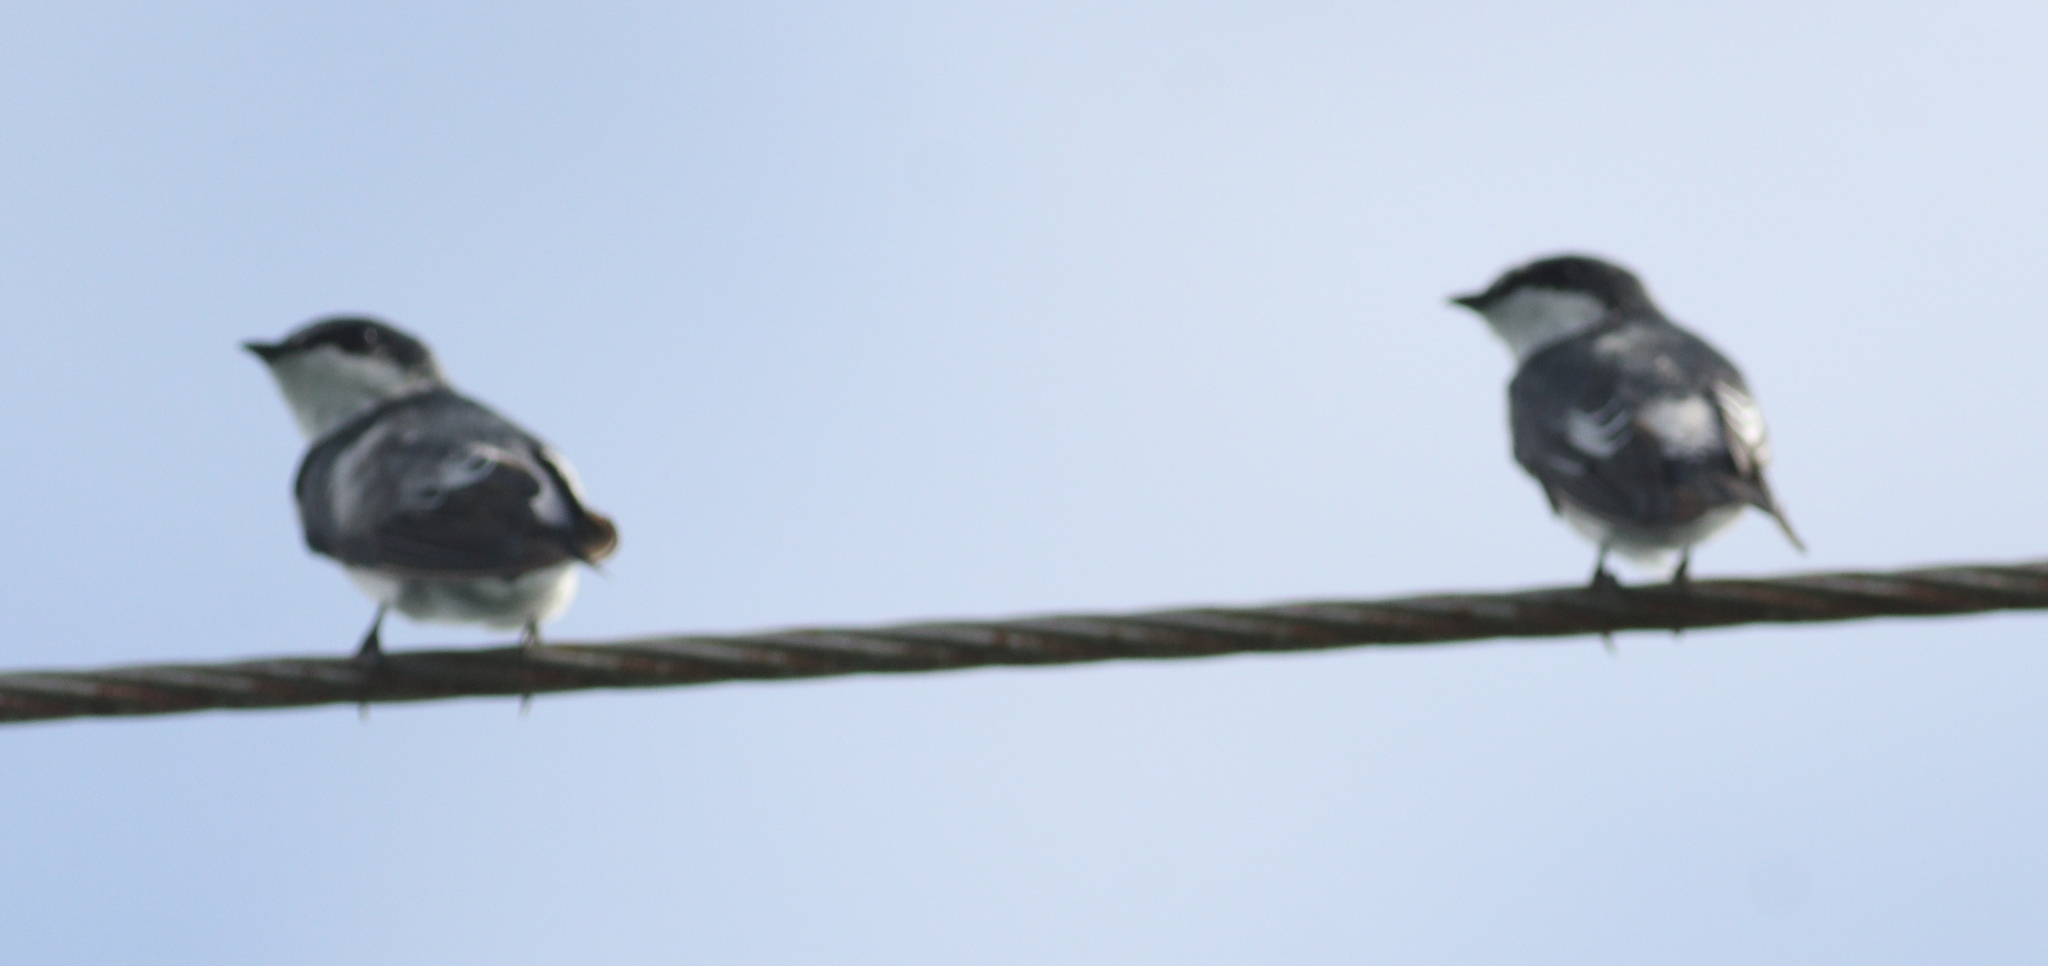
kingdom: Animalia
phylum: Chordata
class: Aves
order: Passeriformes
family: Hirundinidae
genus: Tachycineta
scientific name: Tachycineta albilinea
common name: Mangrove swallow
